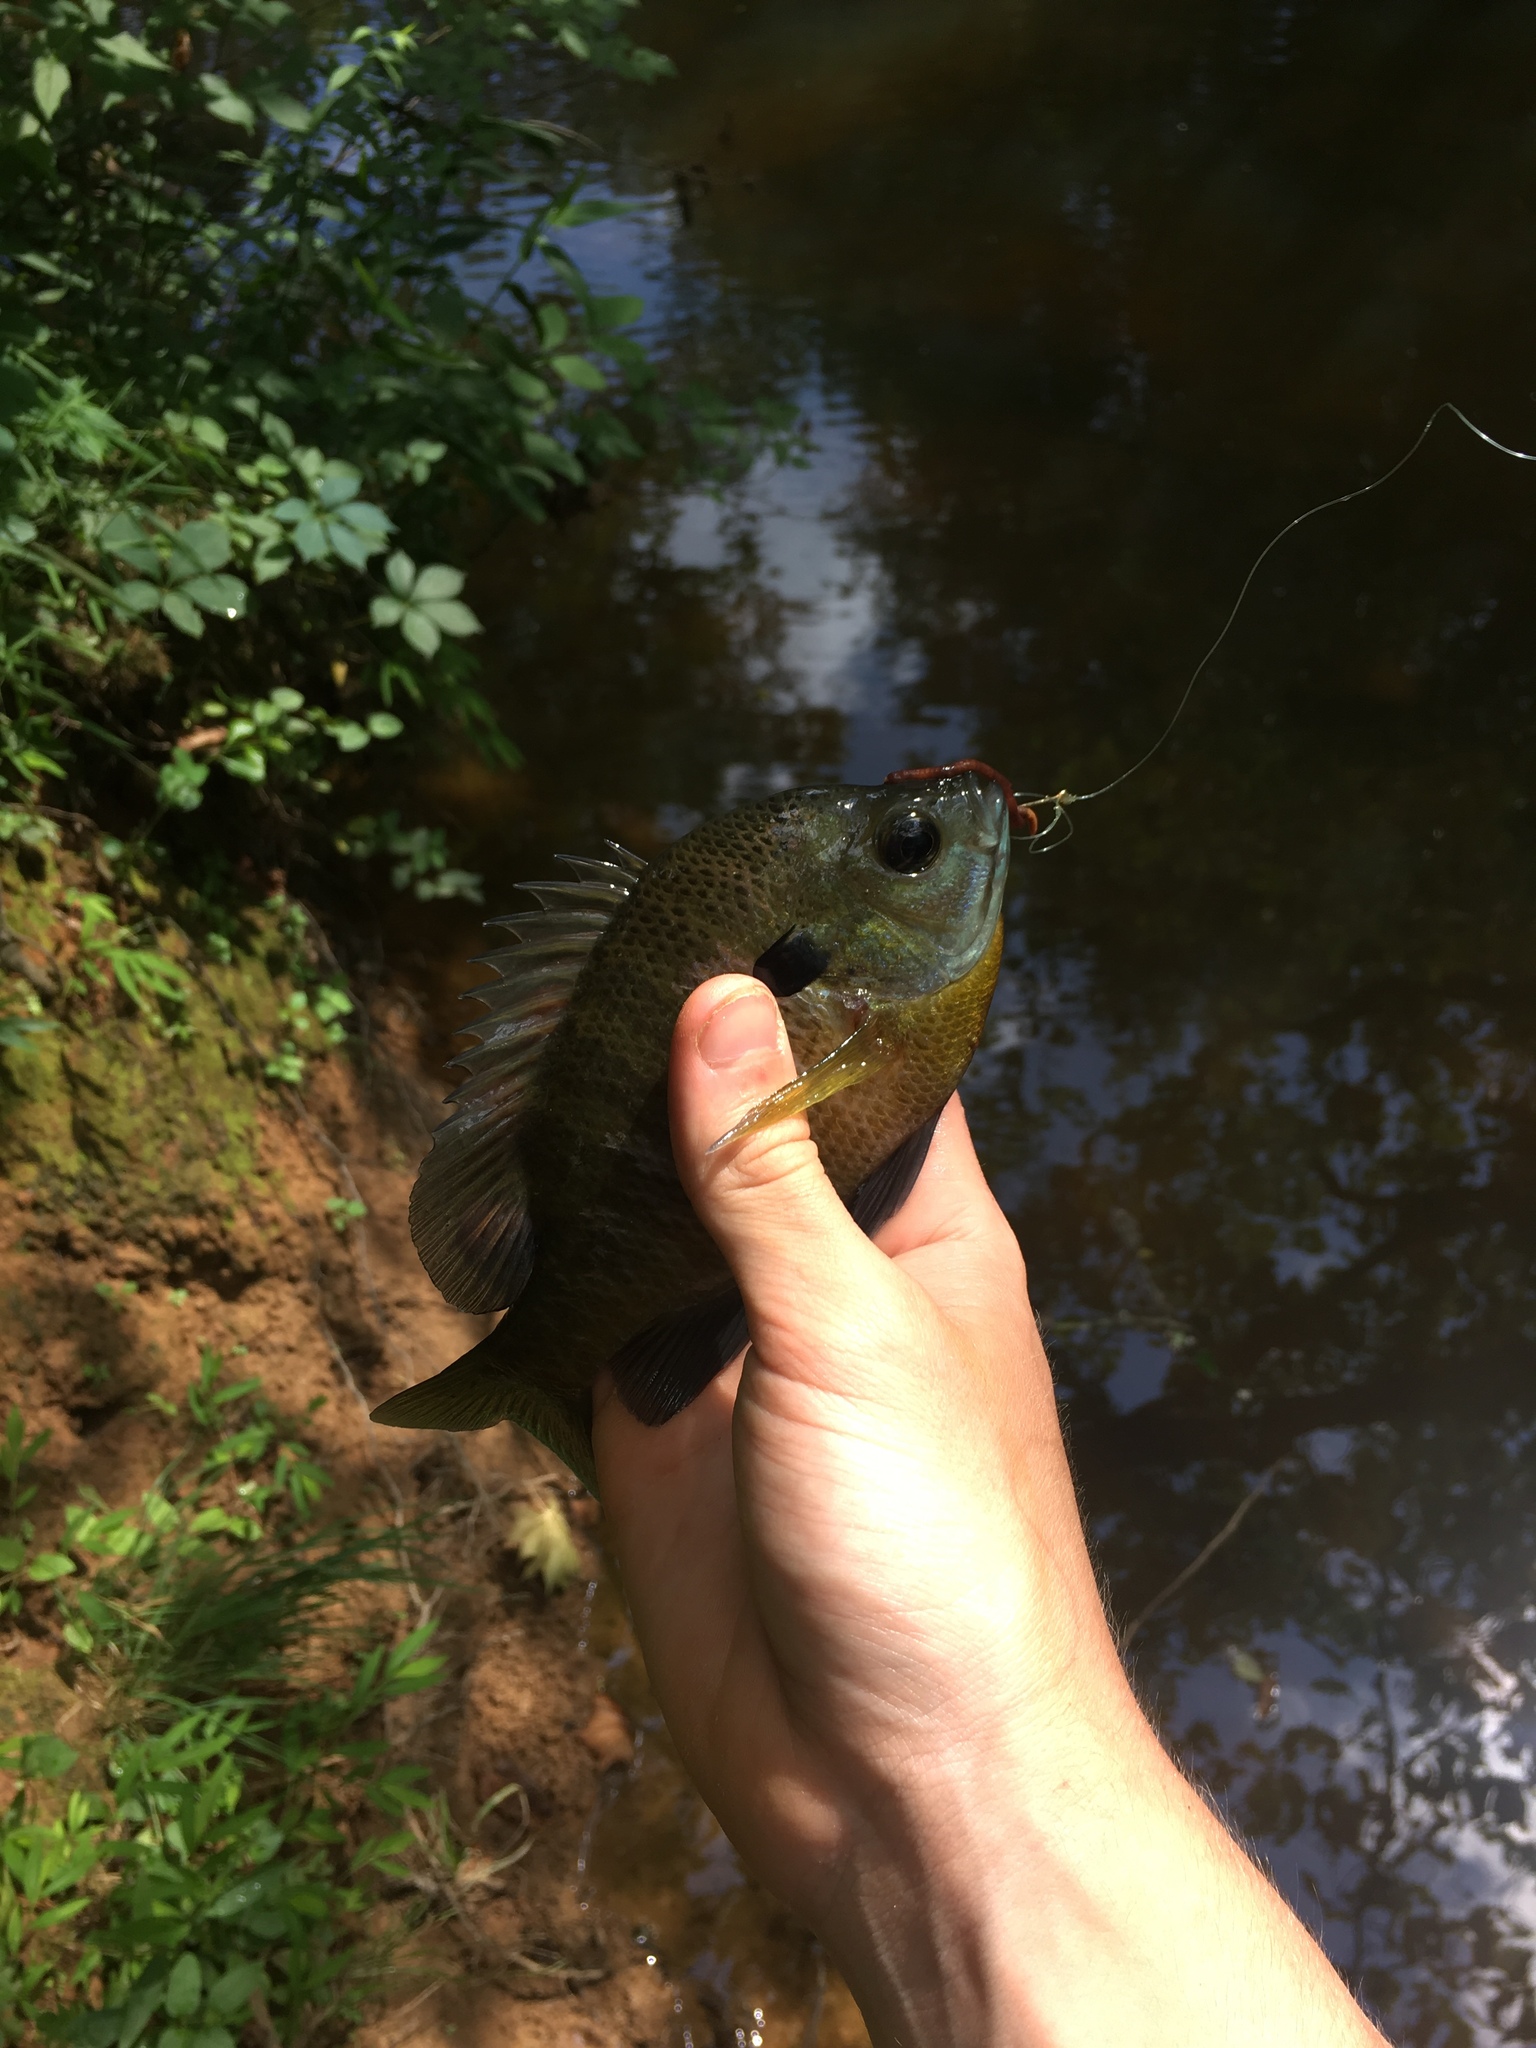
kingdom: Animalia
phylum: Chordata
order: Perciformes
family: Centrarchidae
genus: Lepomis
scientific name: Lepomis macrochirus
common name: Bluegill
